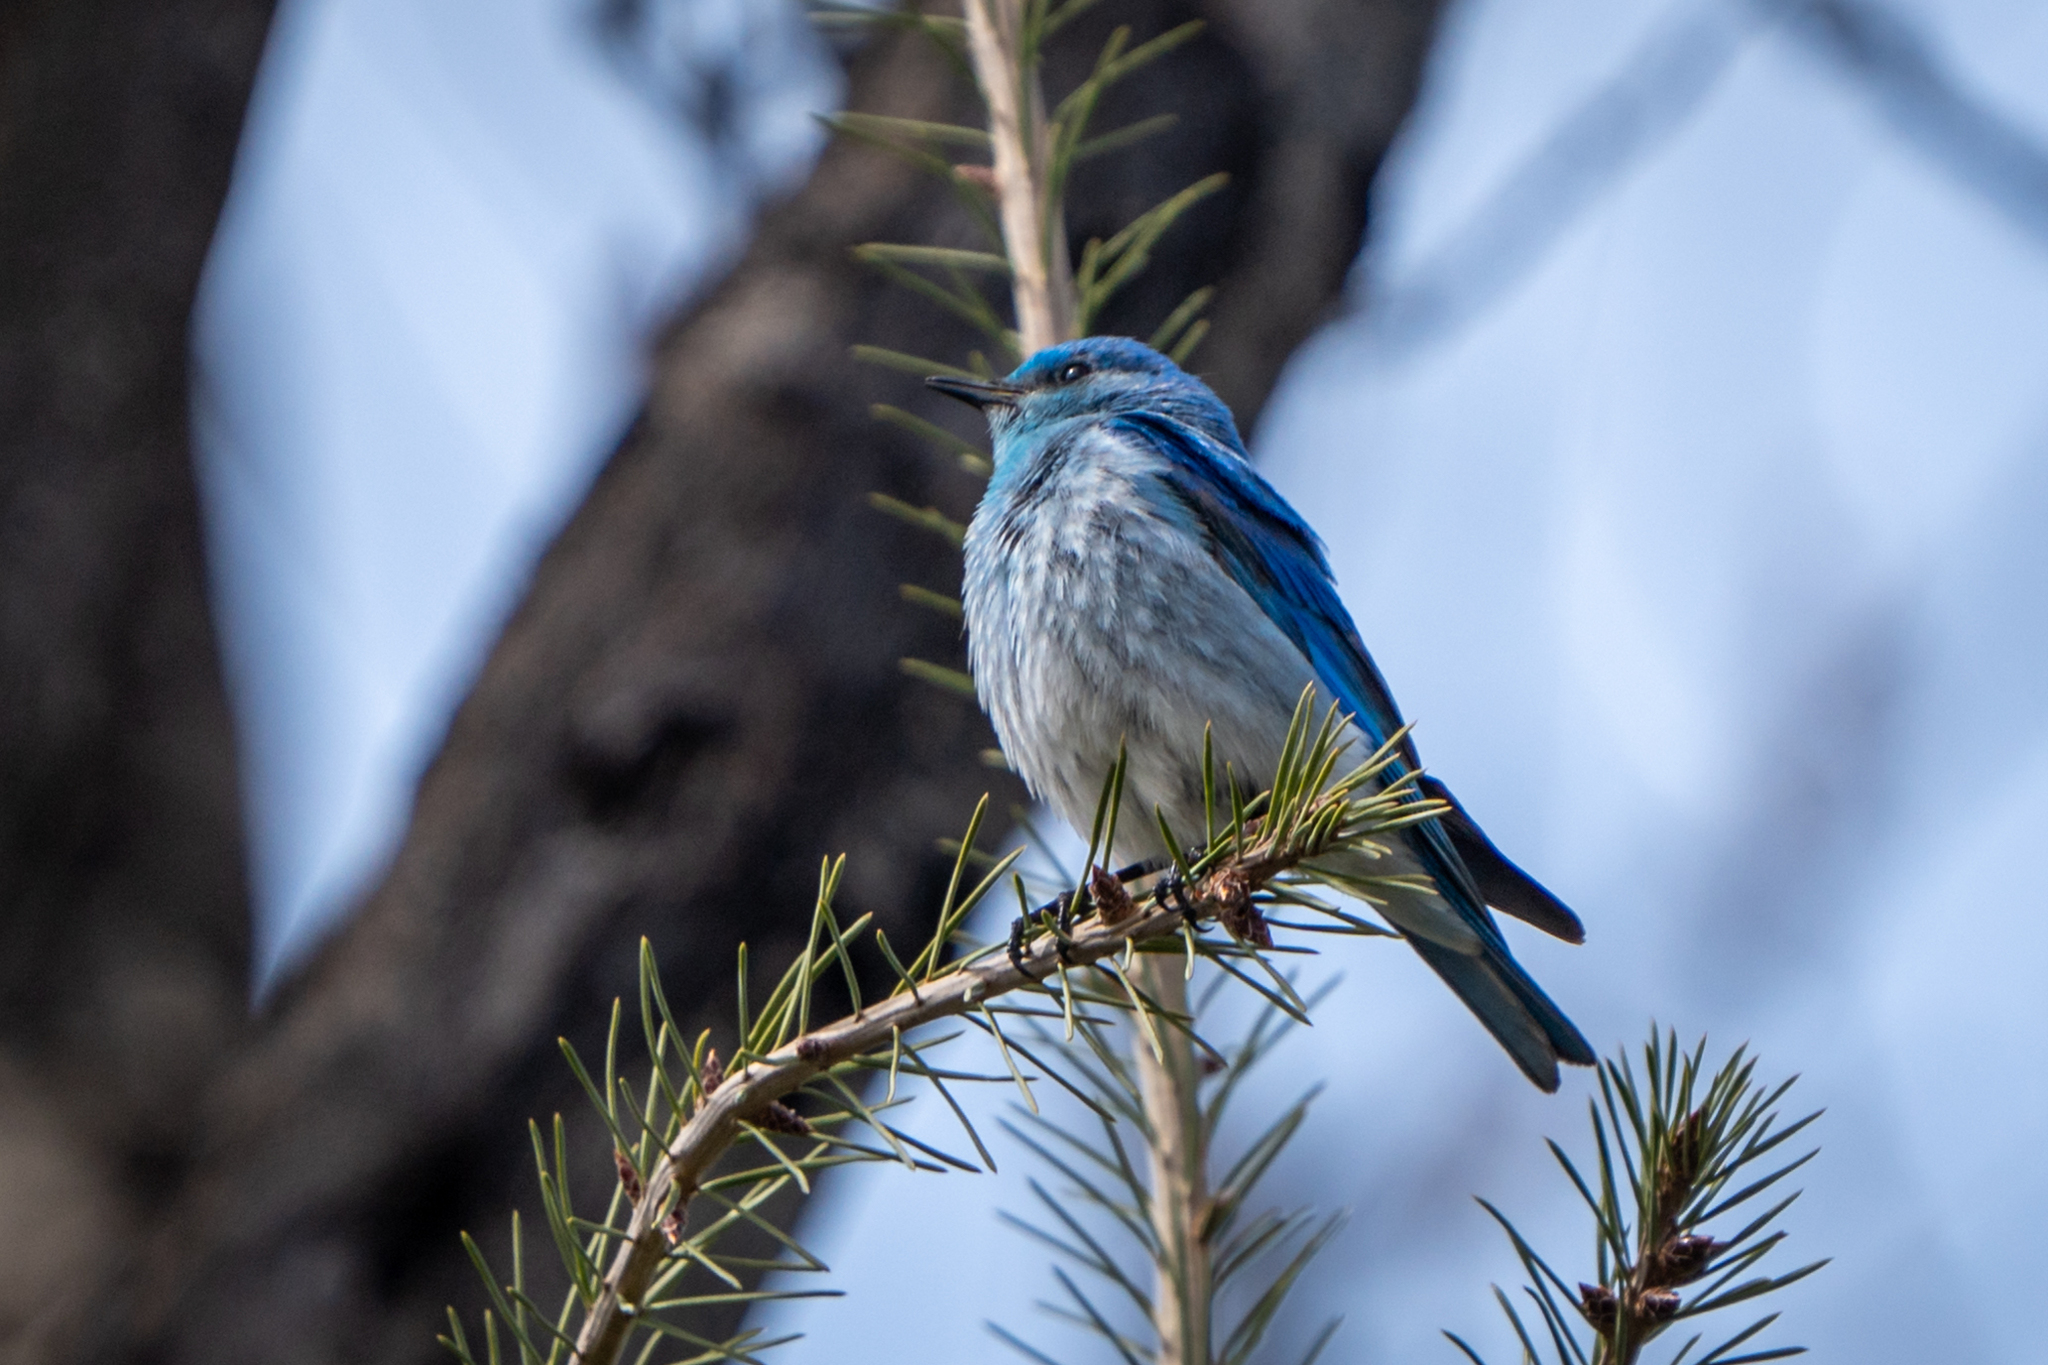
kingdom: Animalia
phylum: Chordata
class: Aves
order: Passeriformes
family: Turdidae
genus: Sialia
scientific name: Sialia currucoides
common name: Mountain bluebird
